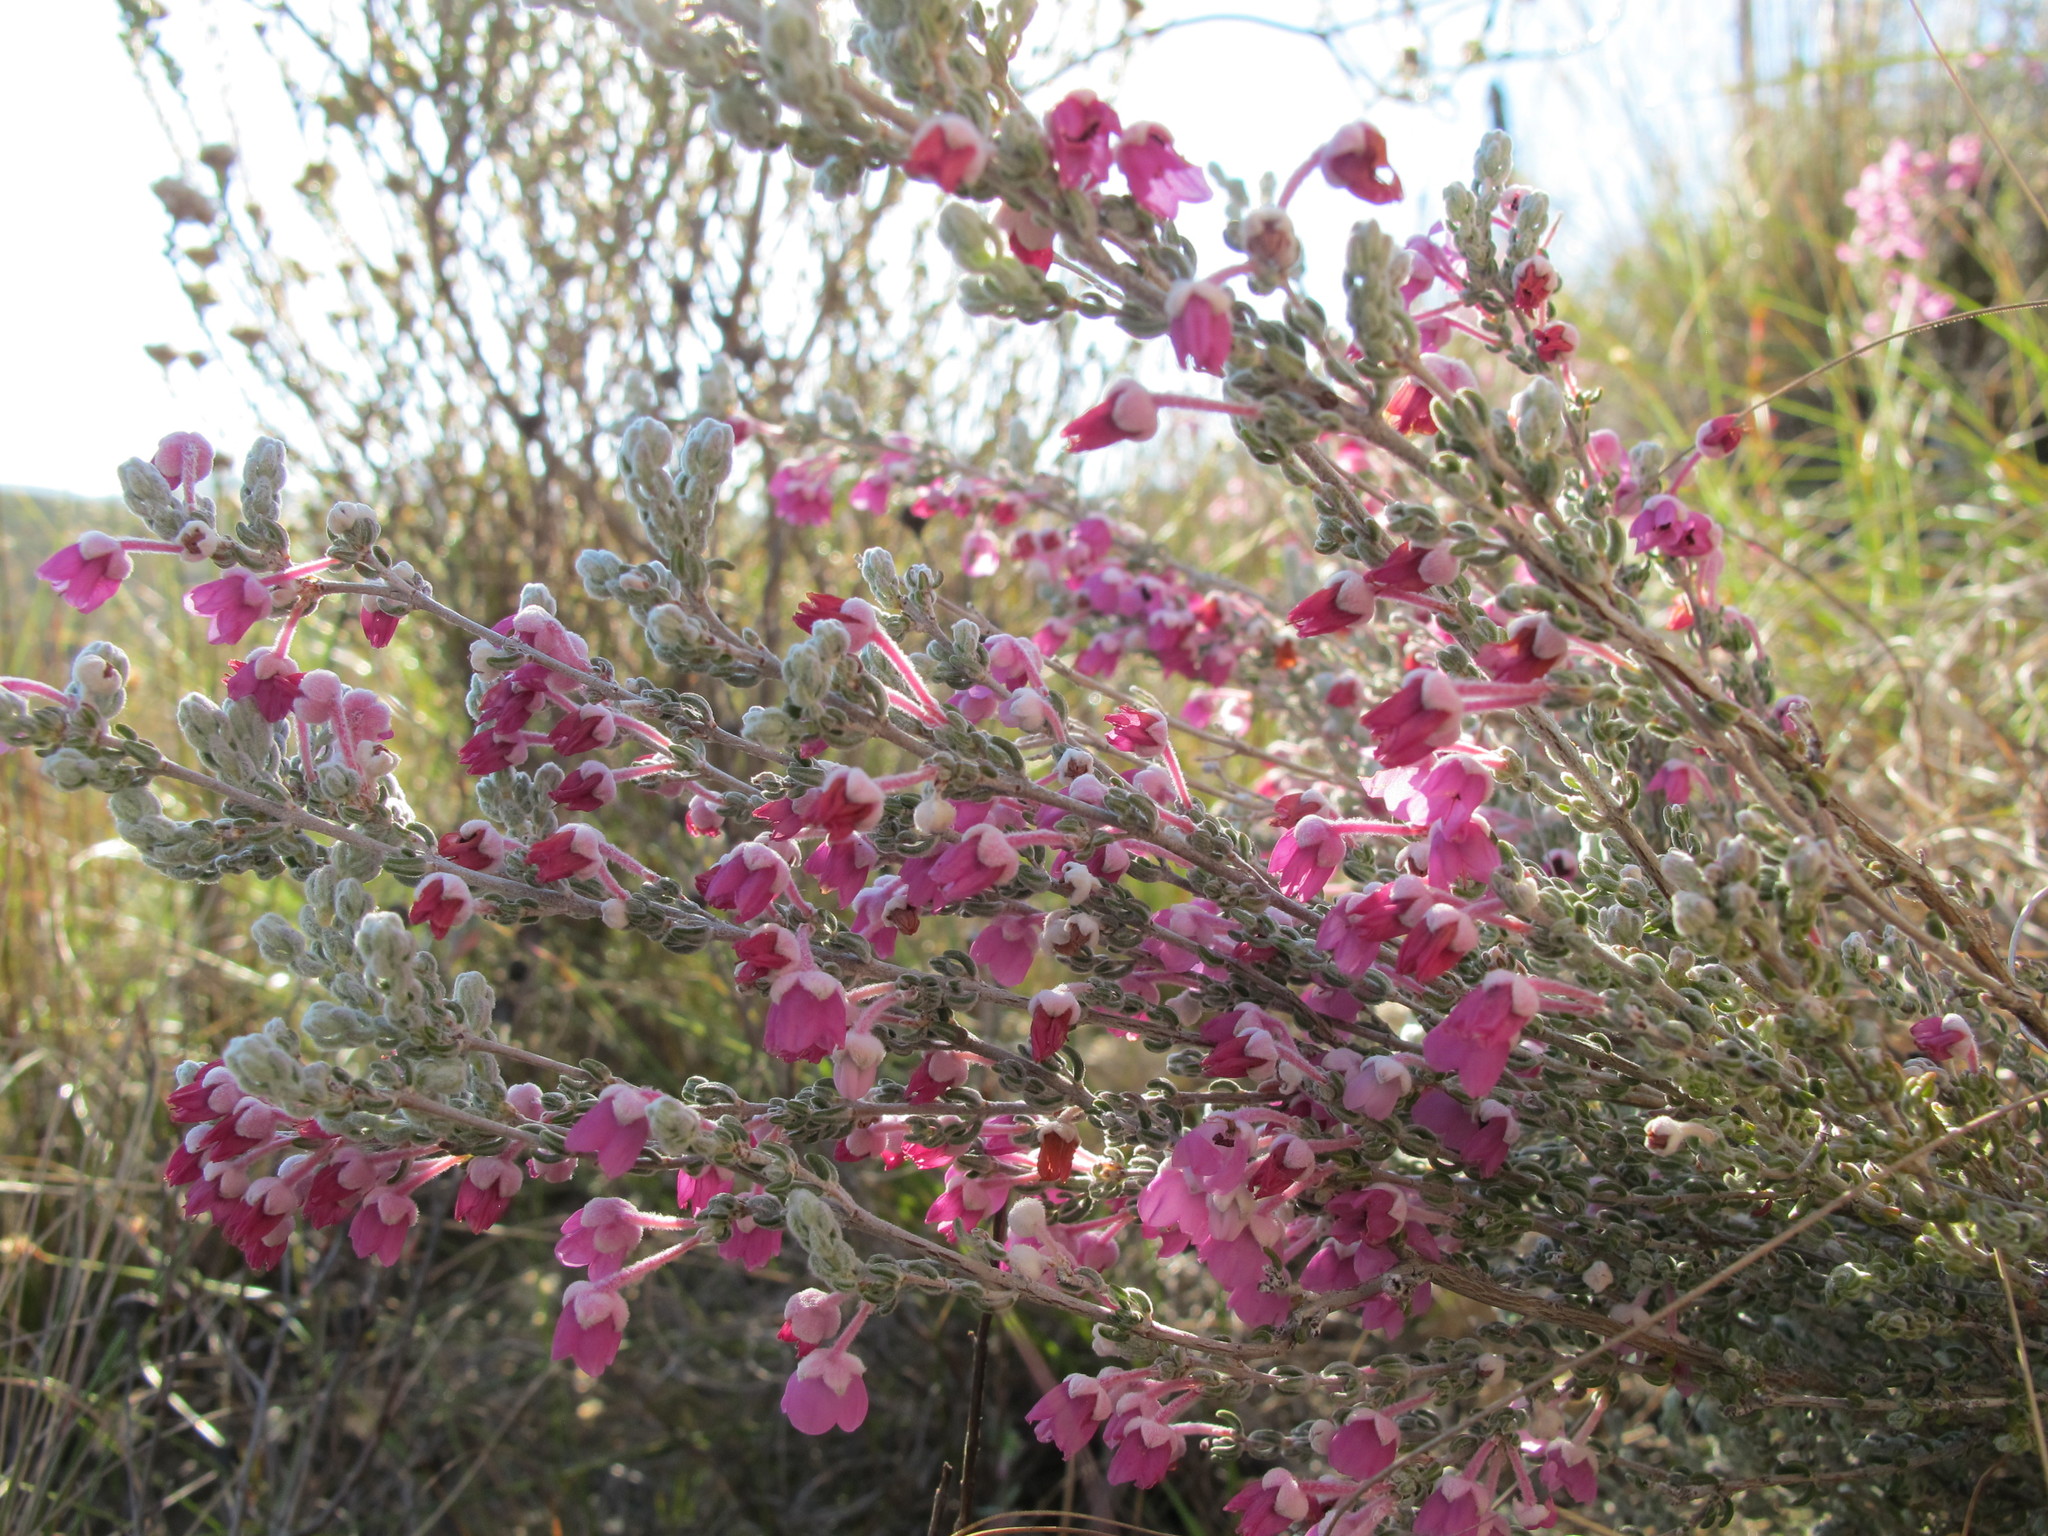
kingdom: Plantae
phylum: Tracheophyta
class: Magnoliopsida
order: Ericales
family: Ericaceae
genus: Erica
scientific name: Erica passerina
